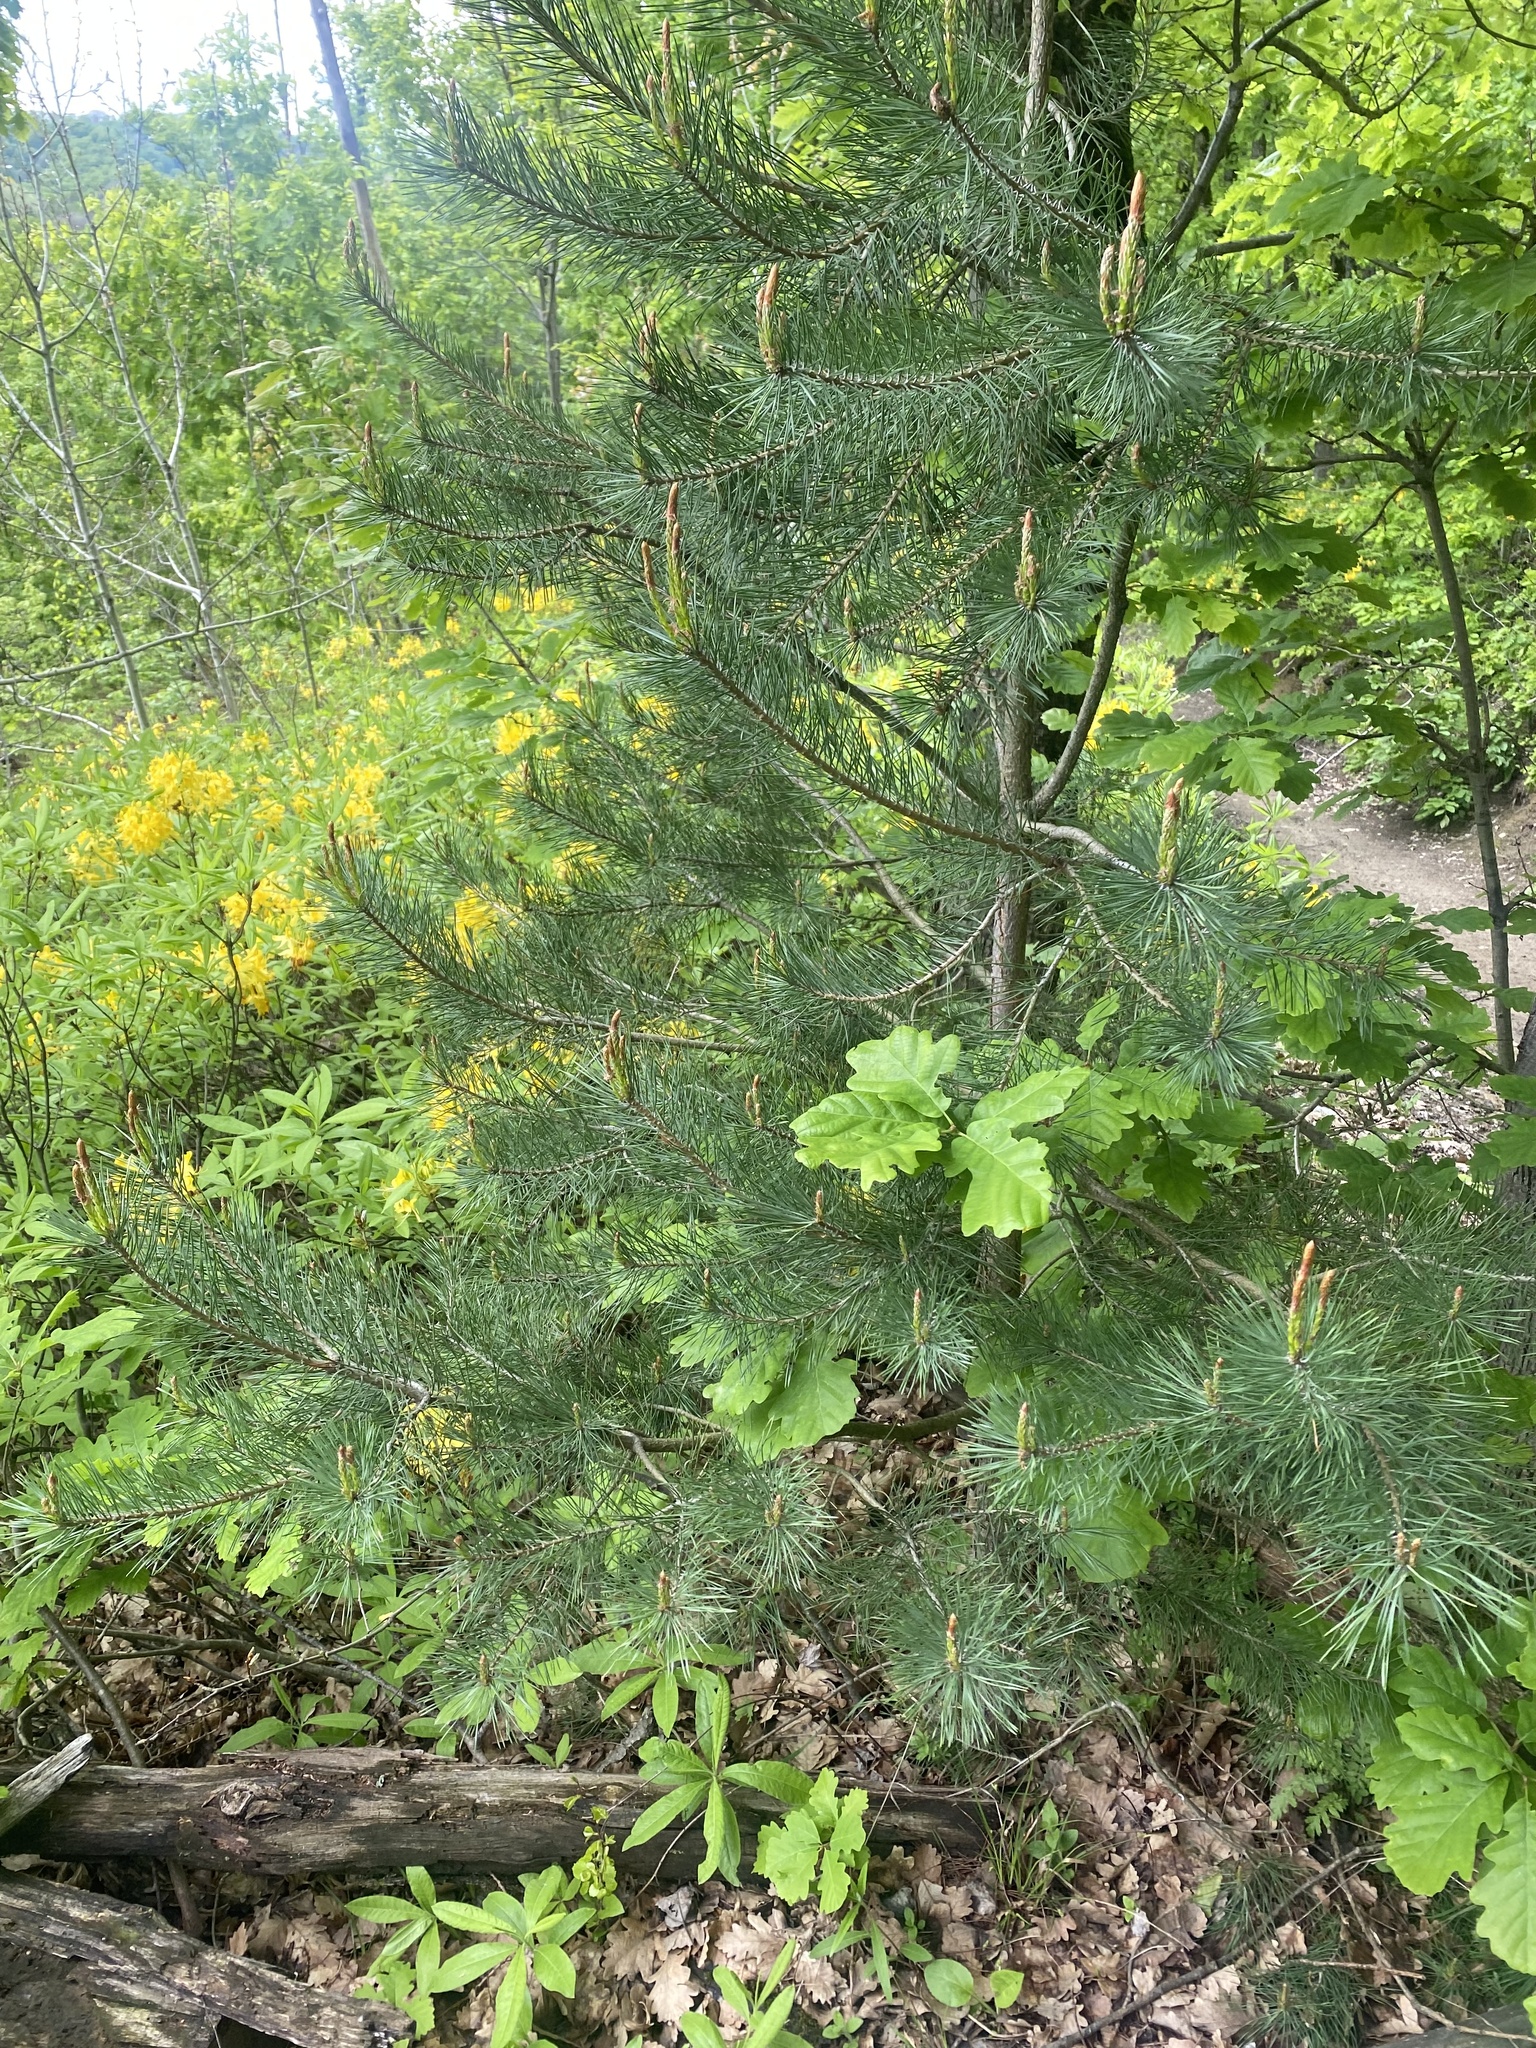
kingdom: Plantae
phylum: Tracheophyta
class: Pinopsida
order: Pinales
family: Pinaceae
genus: Pinus
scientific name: Pinus sylvestris
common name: Scots pine
